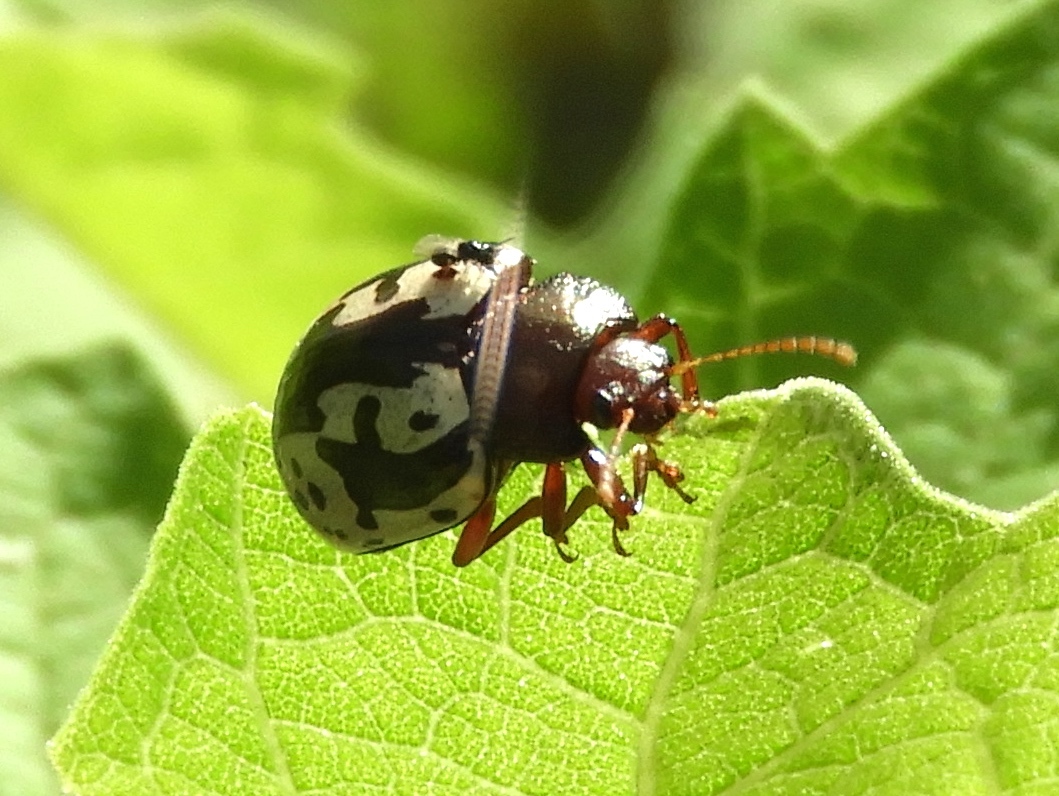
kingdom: Animalia
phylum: Arthropoda
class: Insecta
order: Coleoptera
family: Chrysomelidae
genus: Calligrapha
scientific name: Calligrapha intermedia
